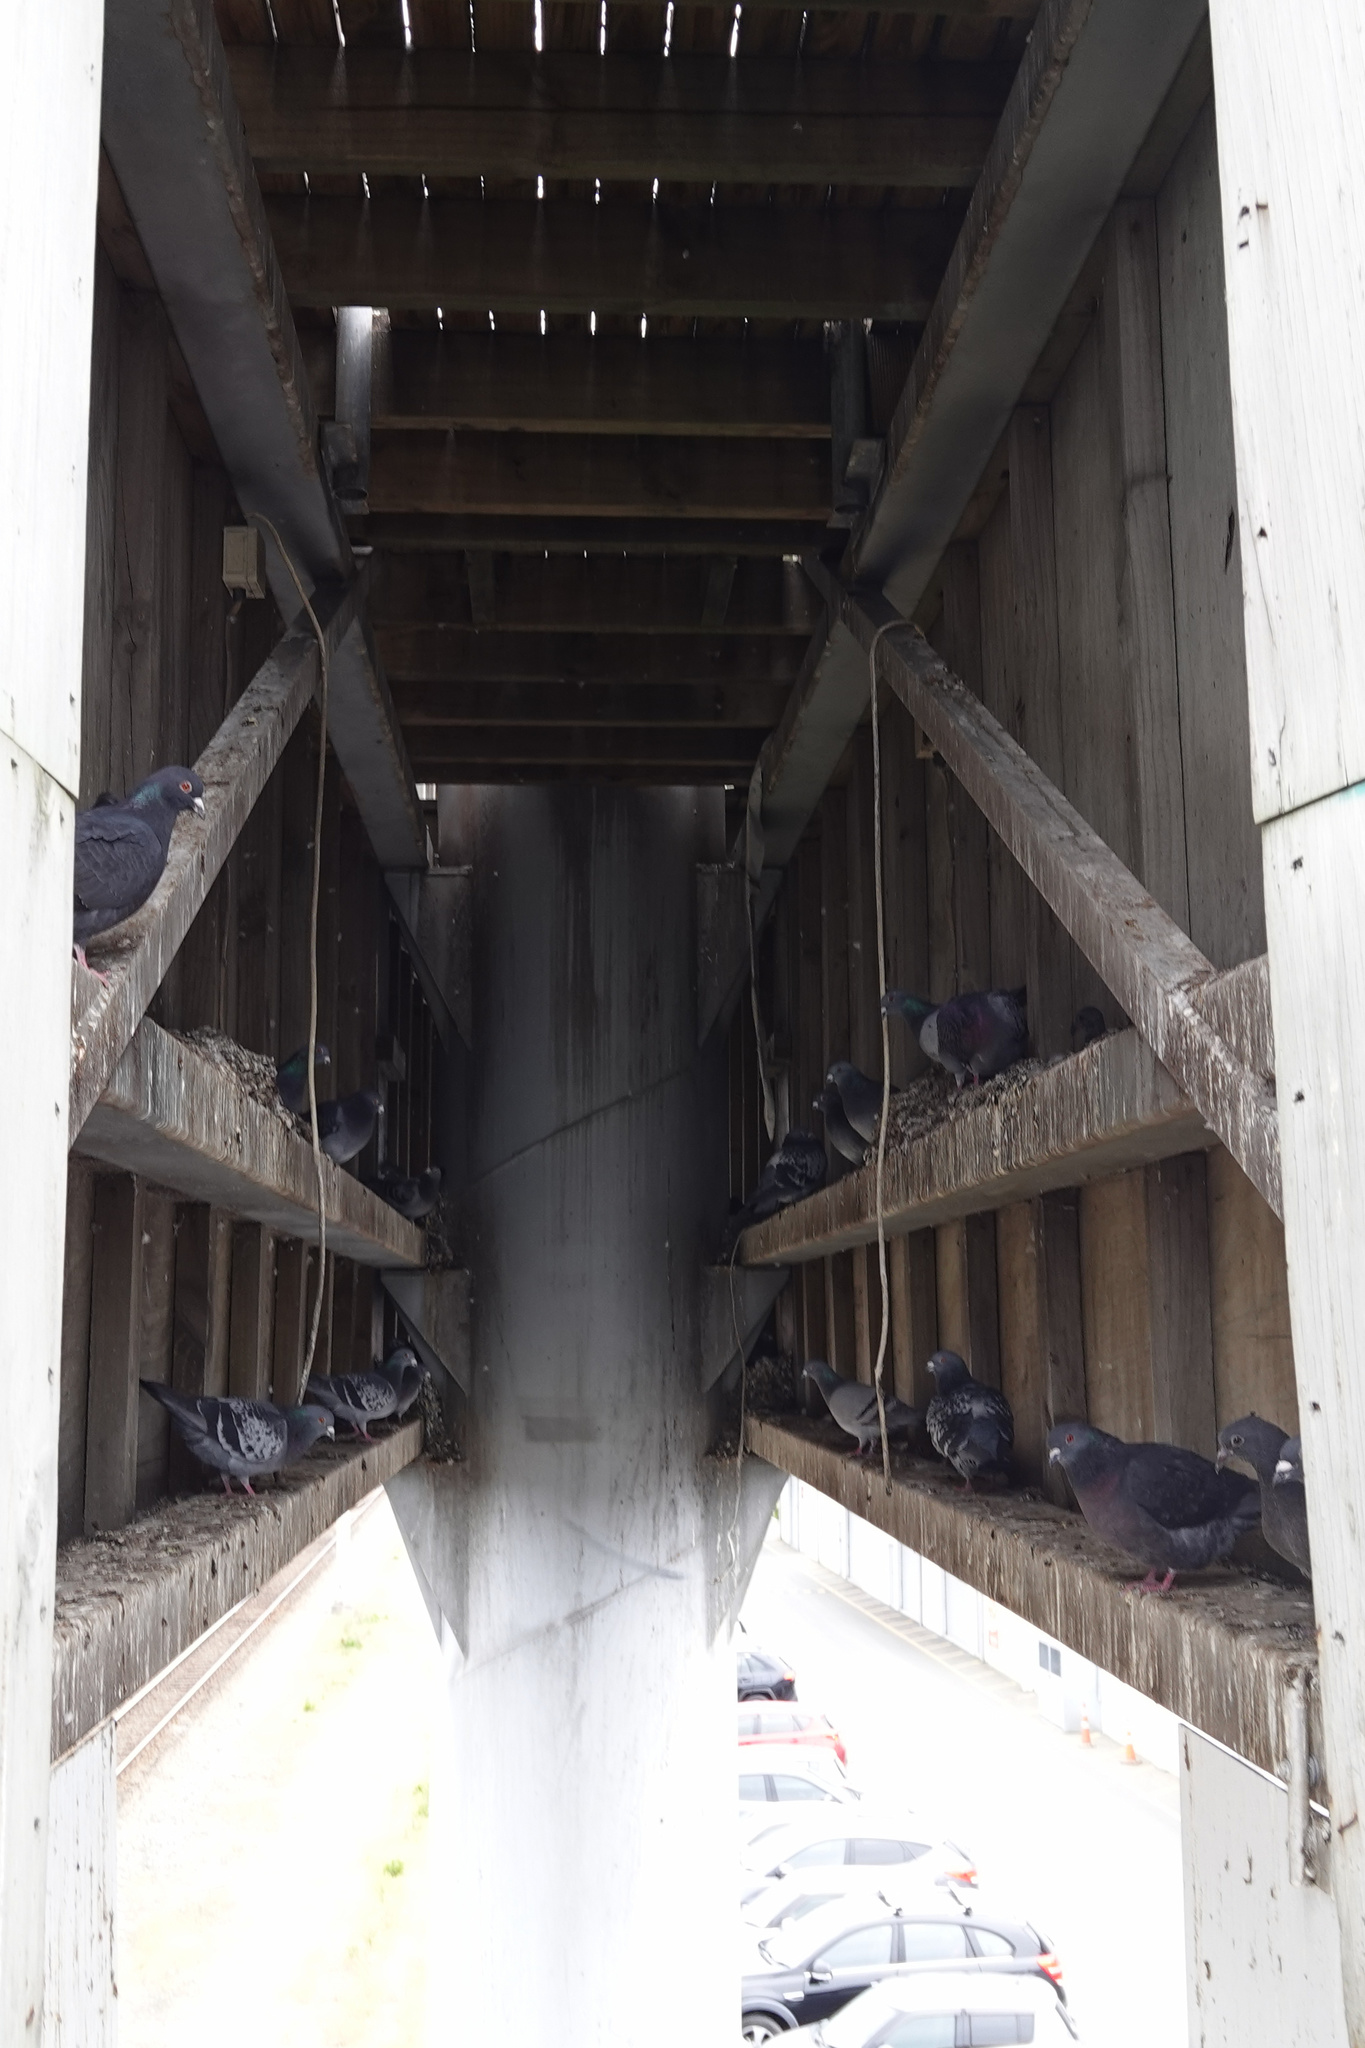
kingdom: Animalia
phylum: Chordata
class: Aves
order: Columbiformes
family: Columbidae
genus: Columba
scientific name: Columba livia
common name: Rock pigeon
